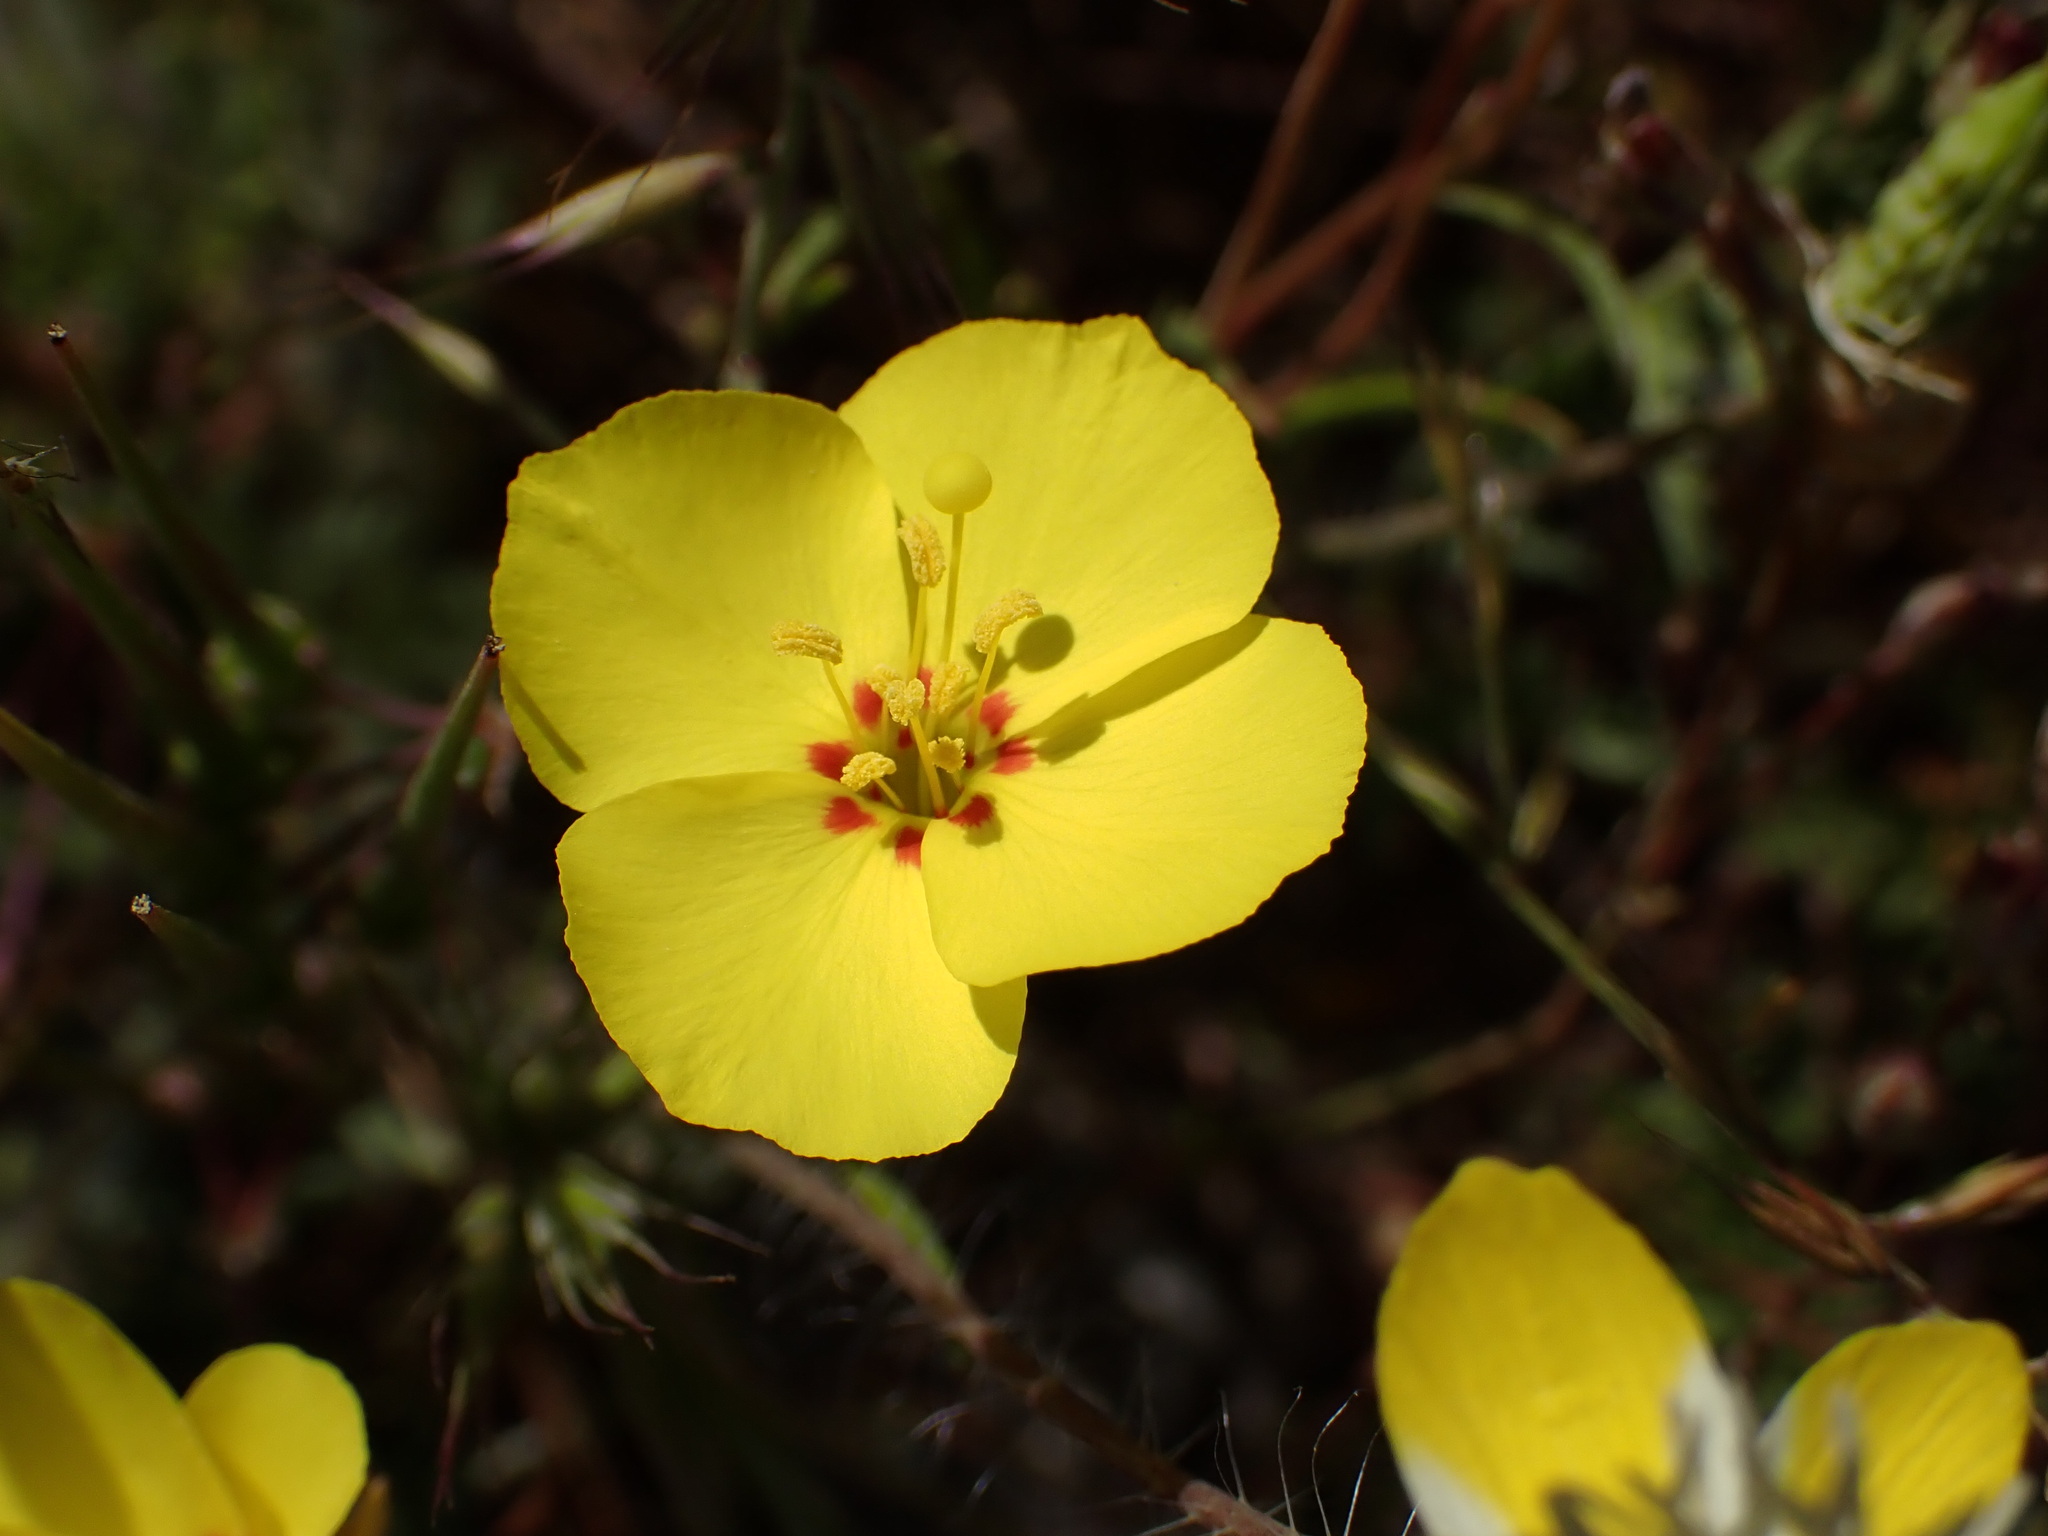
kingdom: Plantae
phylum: Tracheophyta
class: Magnoliopsida
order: Myrtales
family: Onagraceae
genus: Camissonia
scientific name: Camissonia campestris
